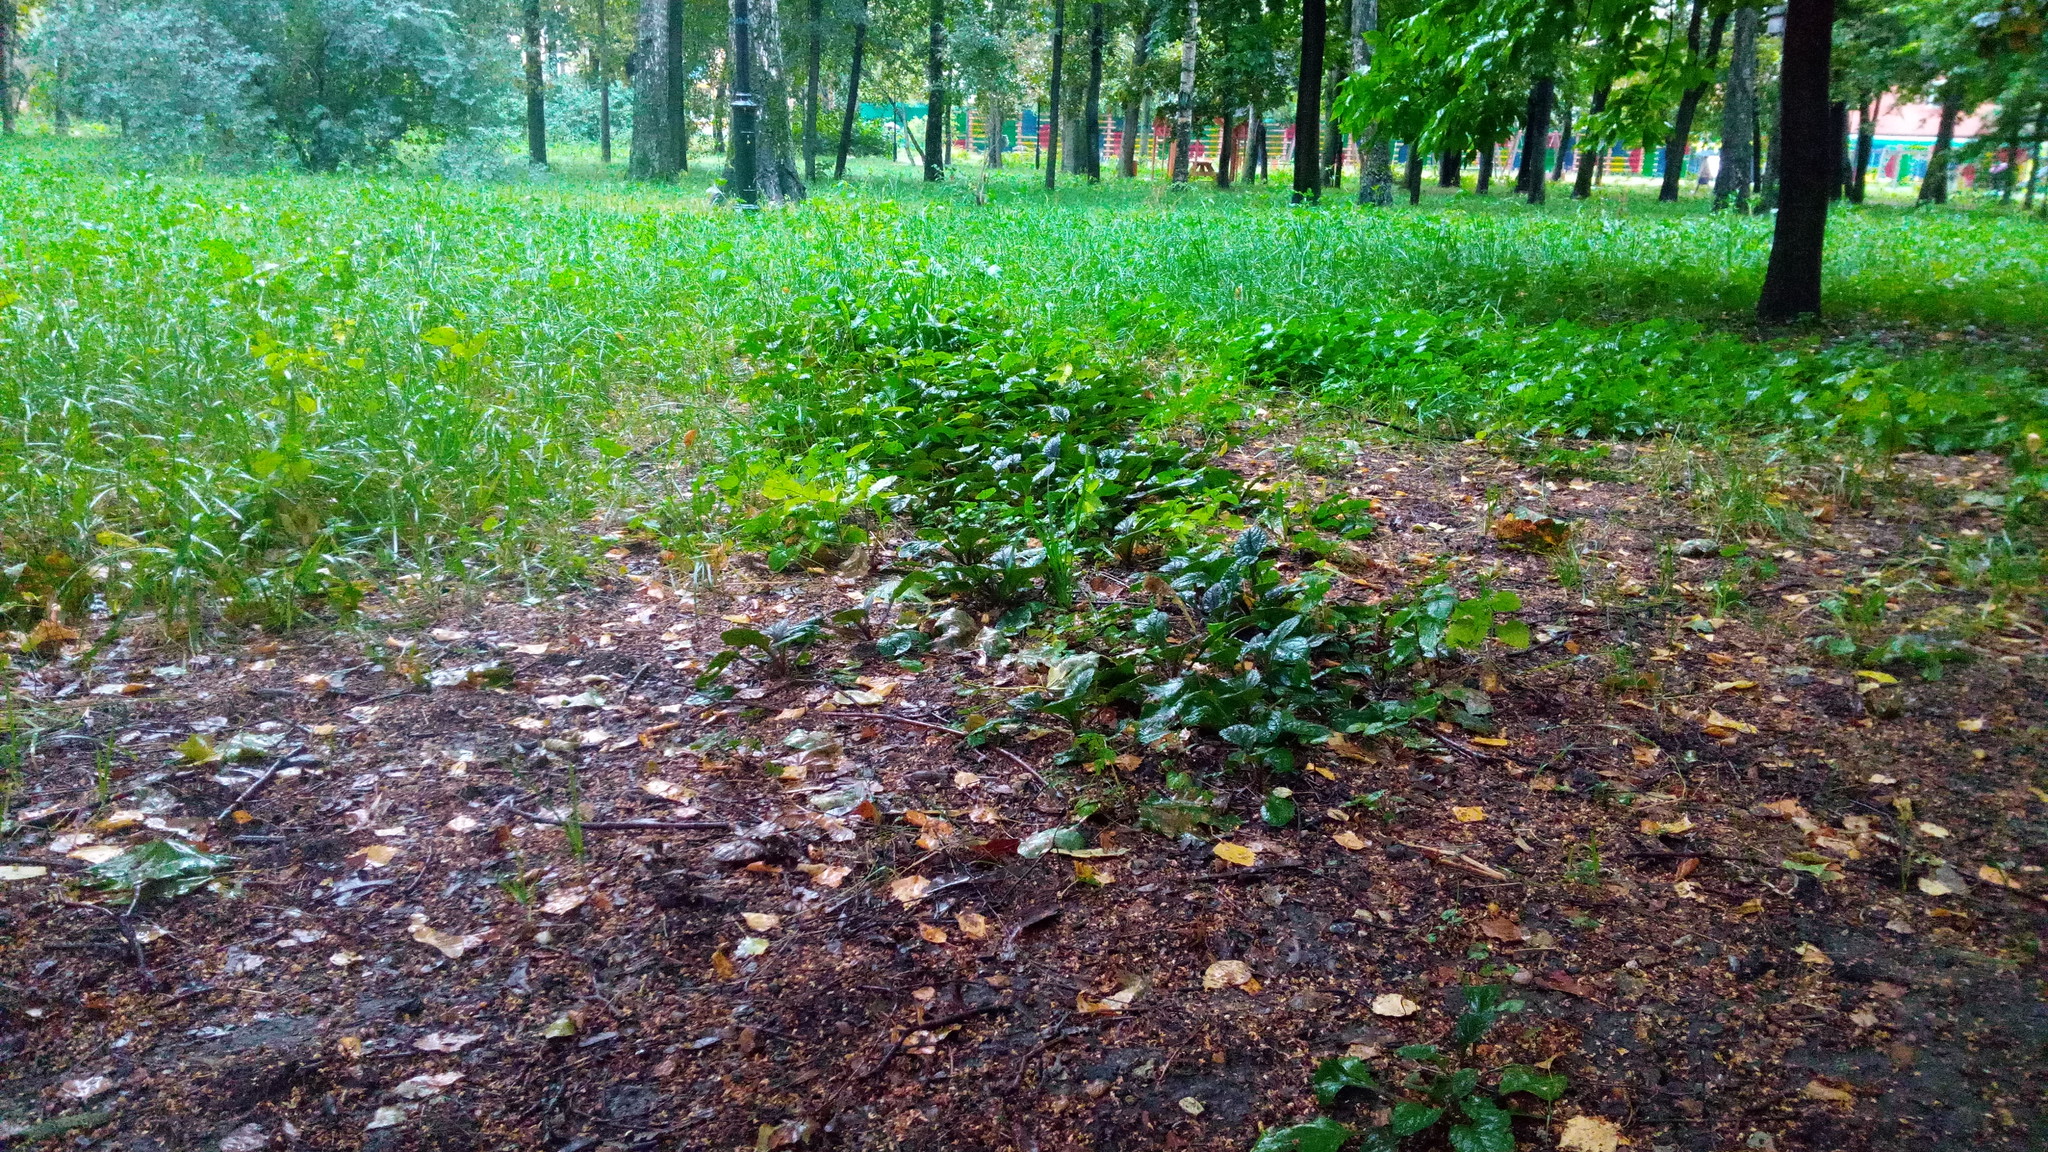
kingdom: Plantae
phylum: Tracheophyta
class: Magnoliopsida
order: Lamiales
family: Lamiaceae
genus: Ajuga
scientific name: Ajuga reptans
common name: Bugle
